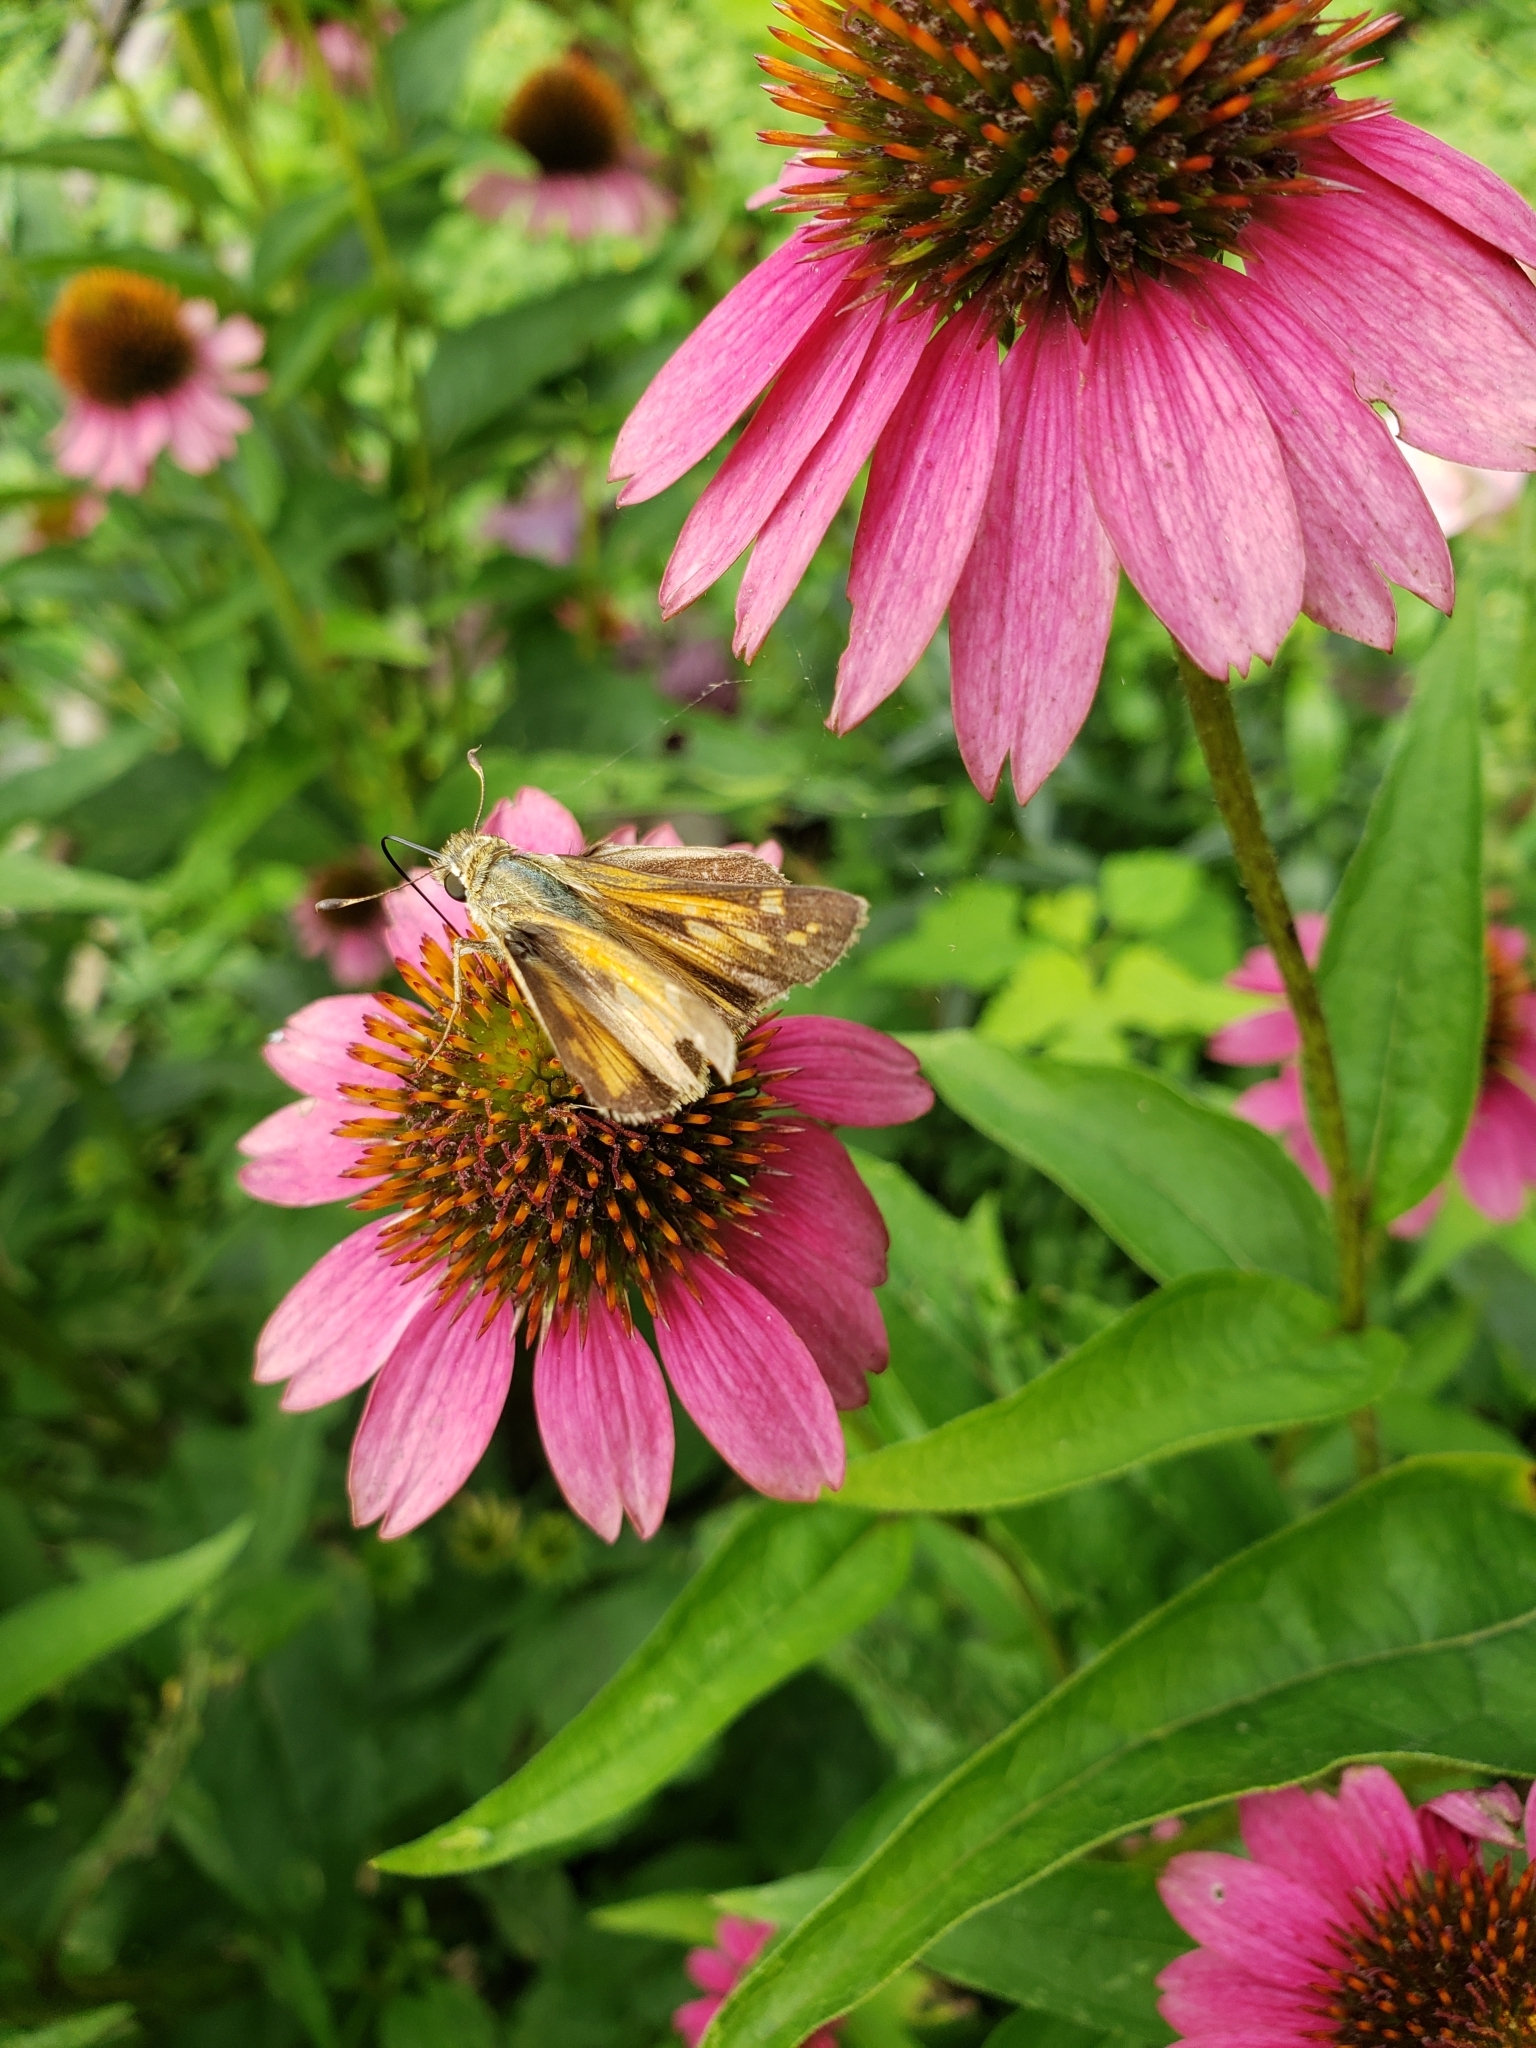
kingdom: Animalia
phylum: Arthropoda
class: Insecta
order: Lepidoptera
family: Hesperiidae
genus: Atalopedes
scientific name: Atalopedes
